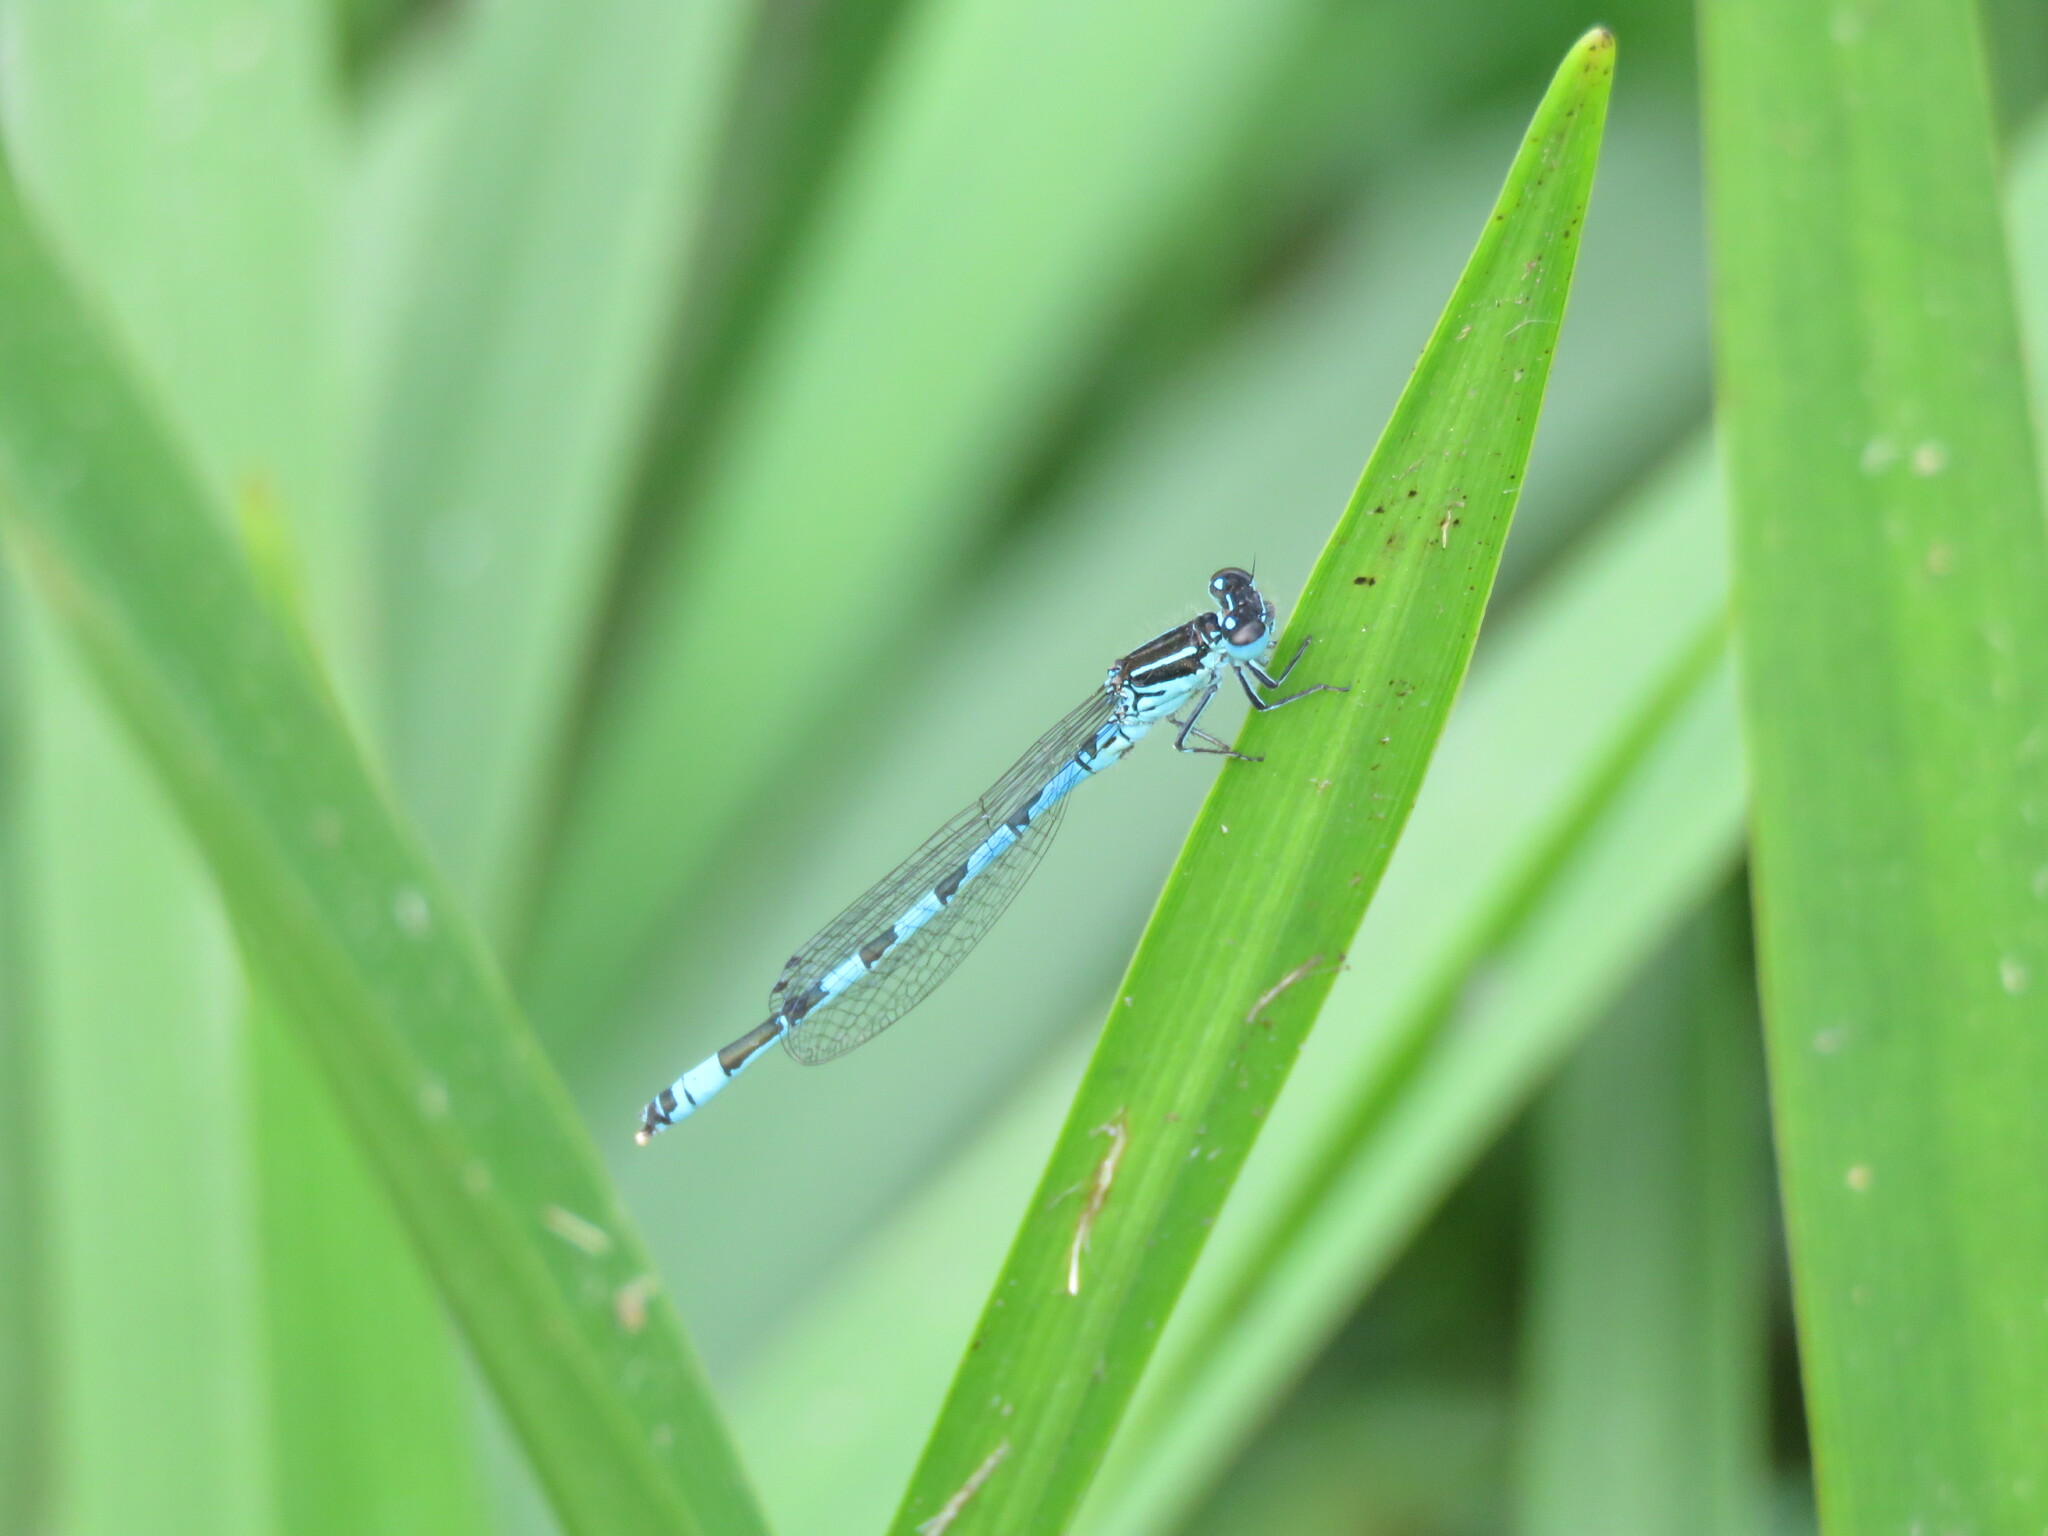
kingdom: Animalia
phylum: Arthropoda
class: Insecta
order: Odonata
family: Coenagrionidae
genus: Coenagrion
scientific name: Coenagrion mercuriale
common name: Southern damselfly
